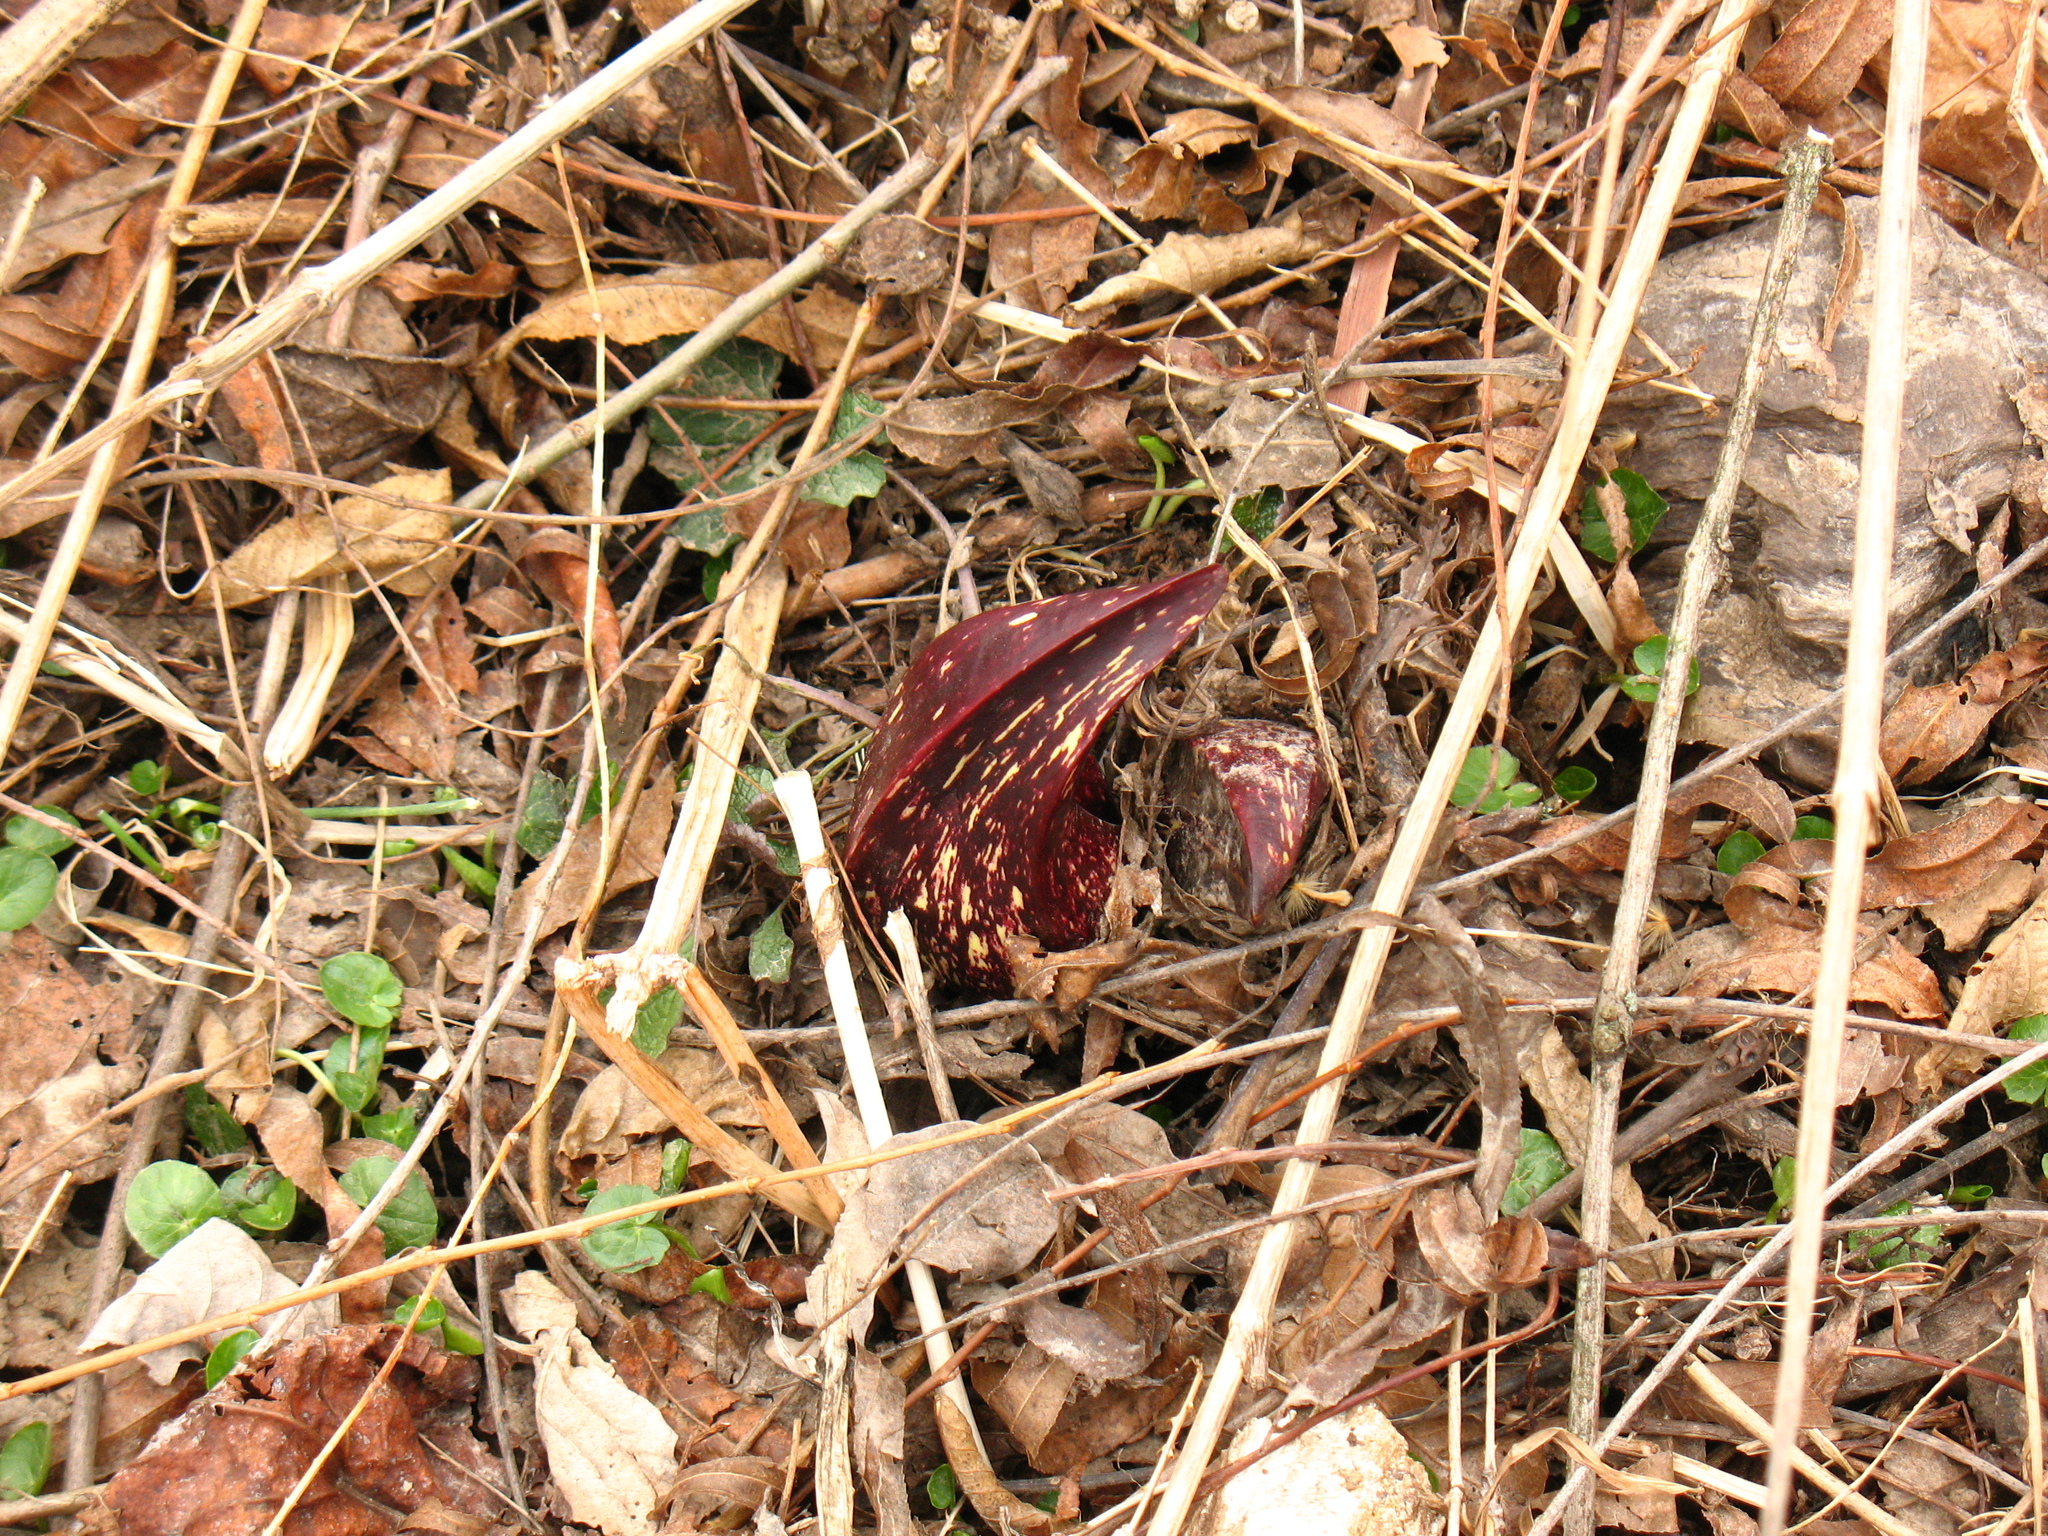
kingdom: Plantae
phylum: Tracheophyta
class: Liliopsida
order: Alismatales
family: Araceae
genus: Symplocarpus
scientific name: Symplocarpus foetidus
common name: Eastern skunk cabbage
